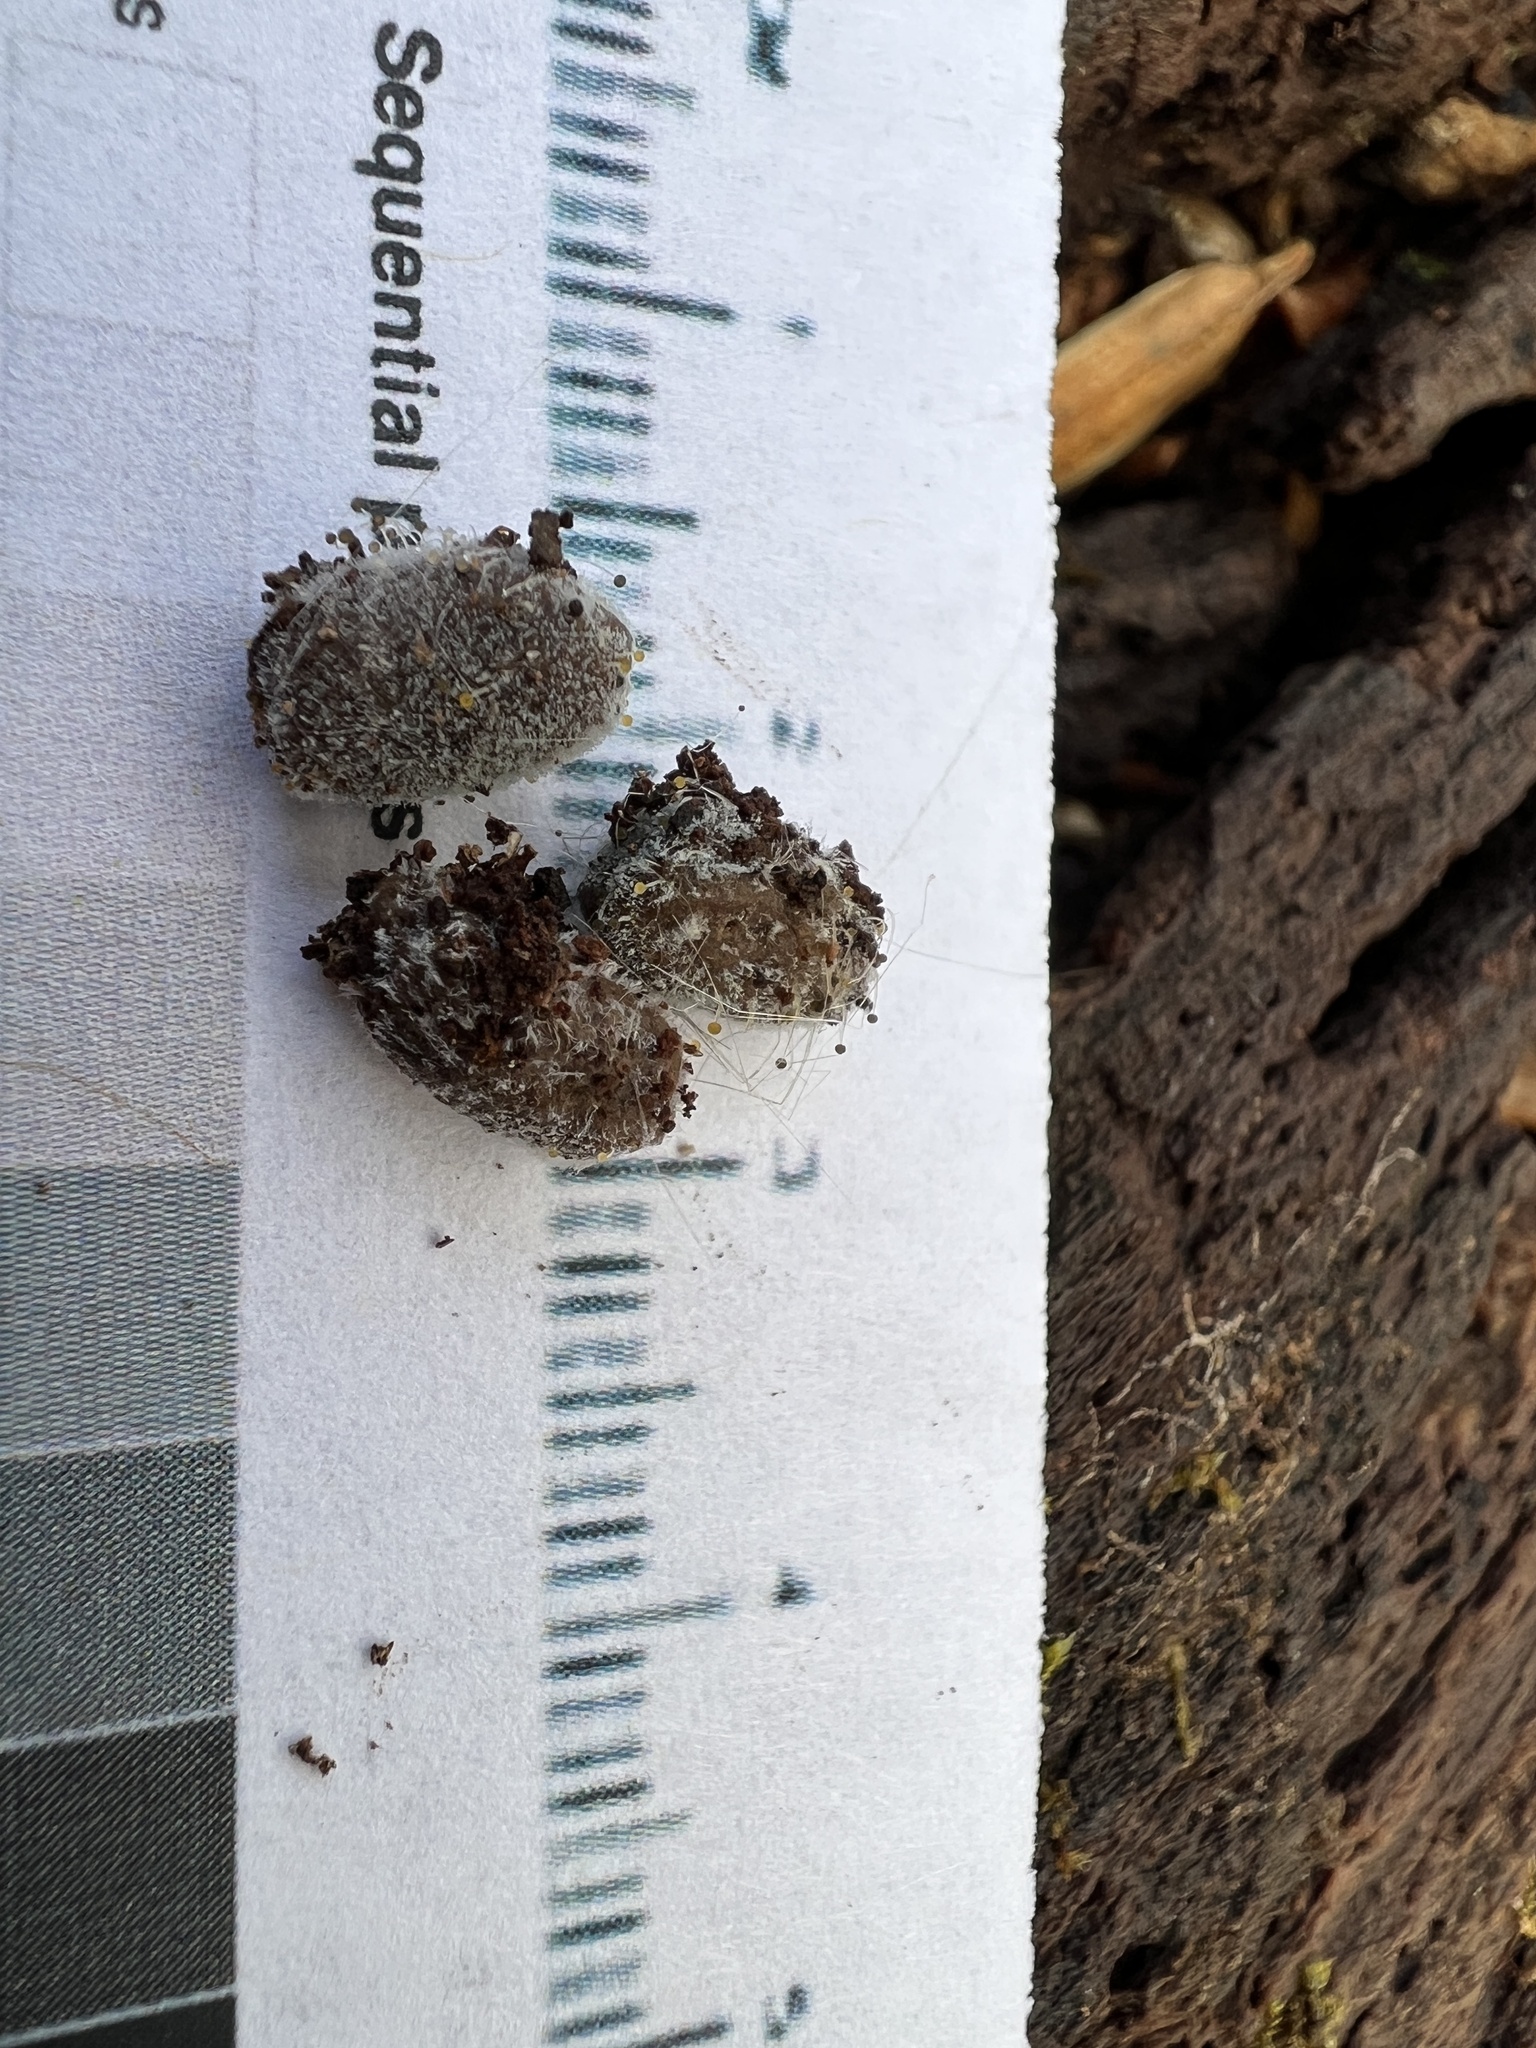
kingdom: Fungi
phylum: Mucoromycota
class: Mucoromycetes
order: Mucorales
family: Mucoraceae
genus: Mucor
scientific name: Mucor mucedo
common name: Common pinmould
